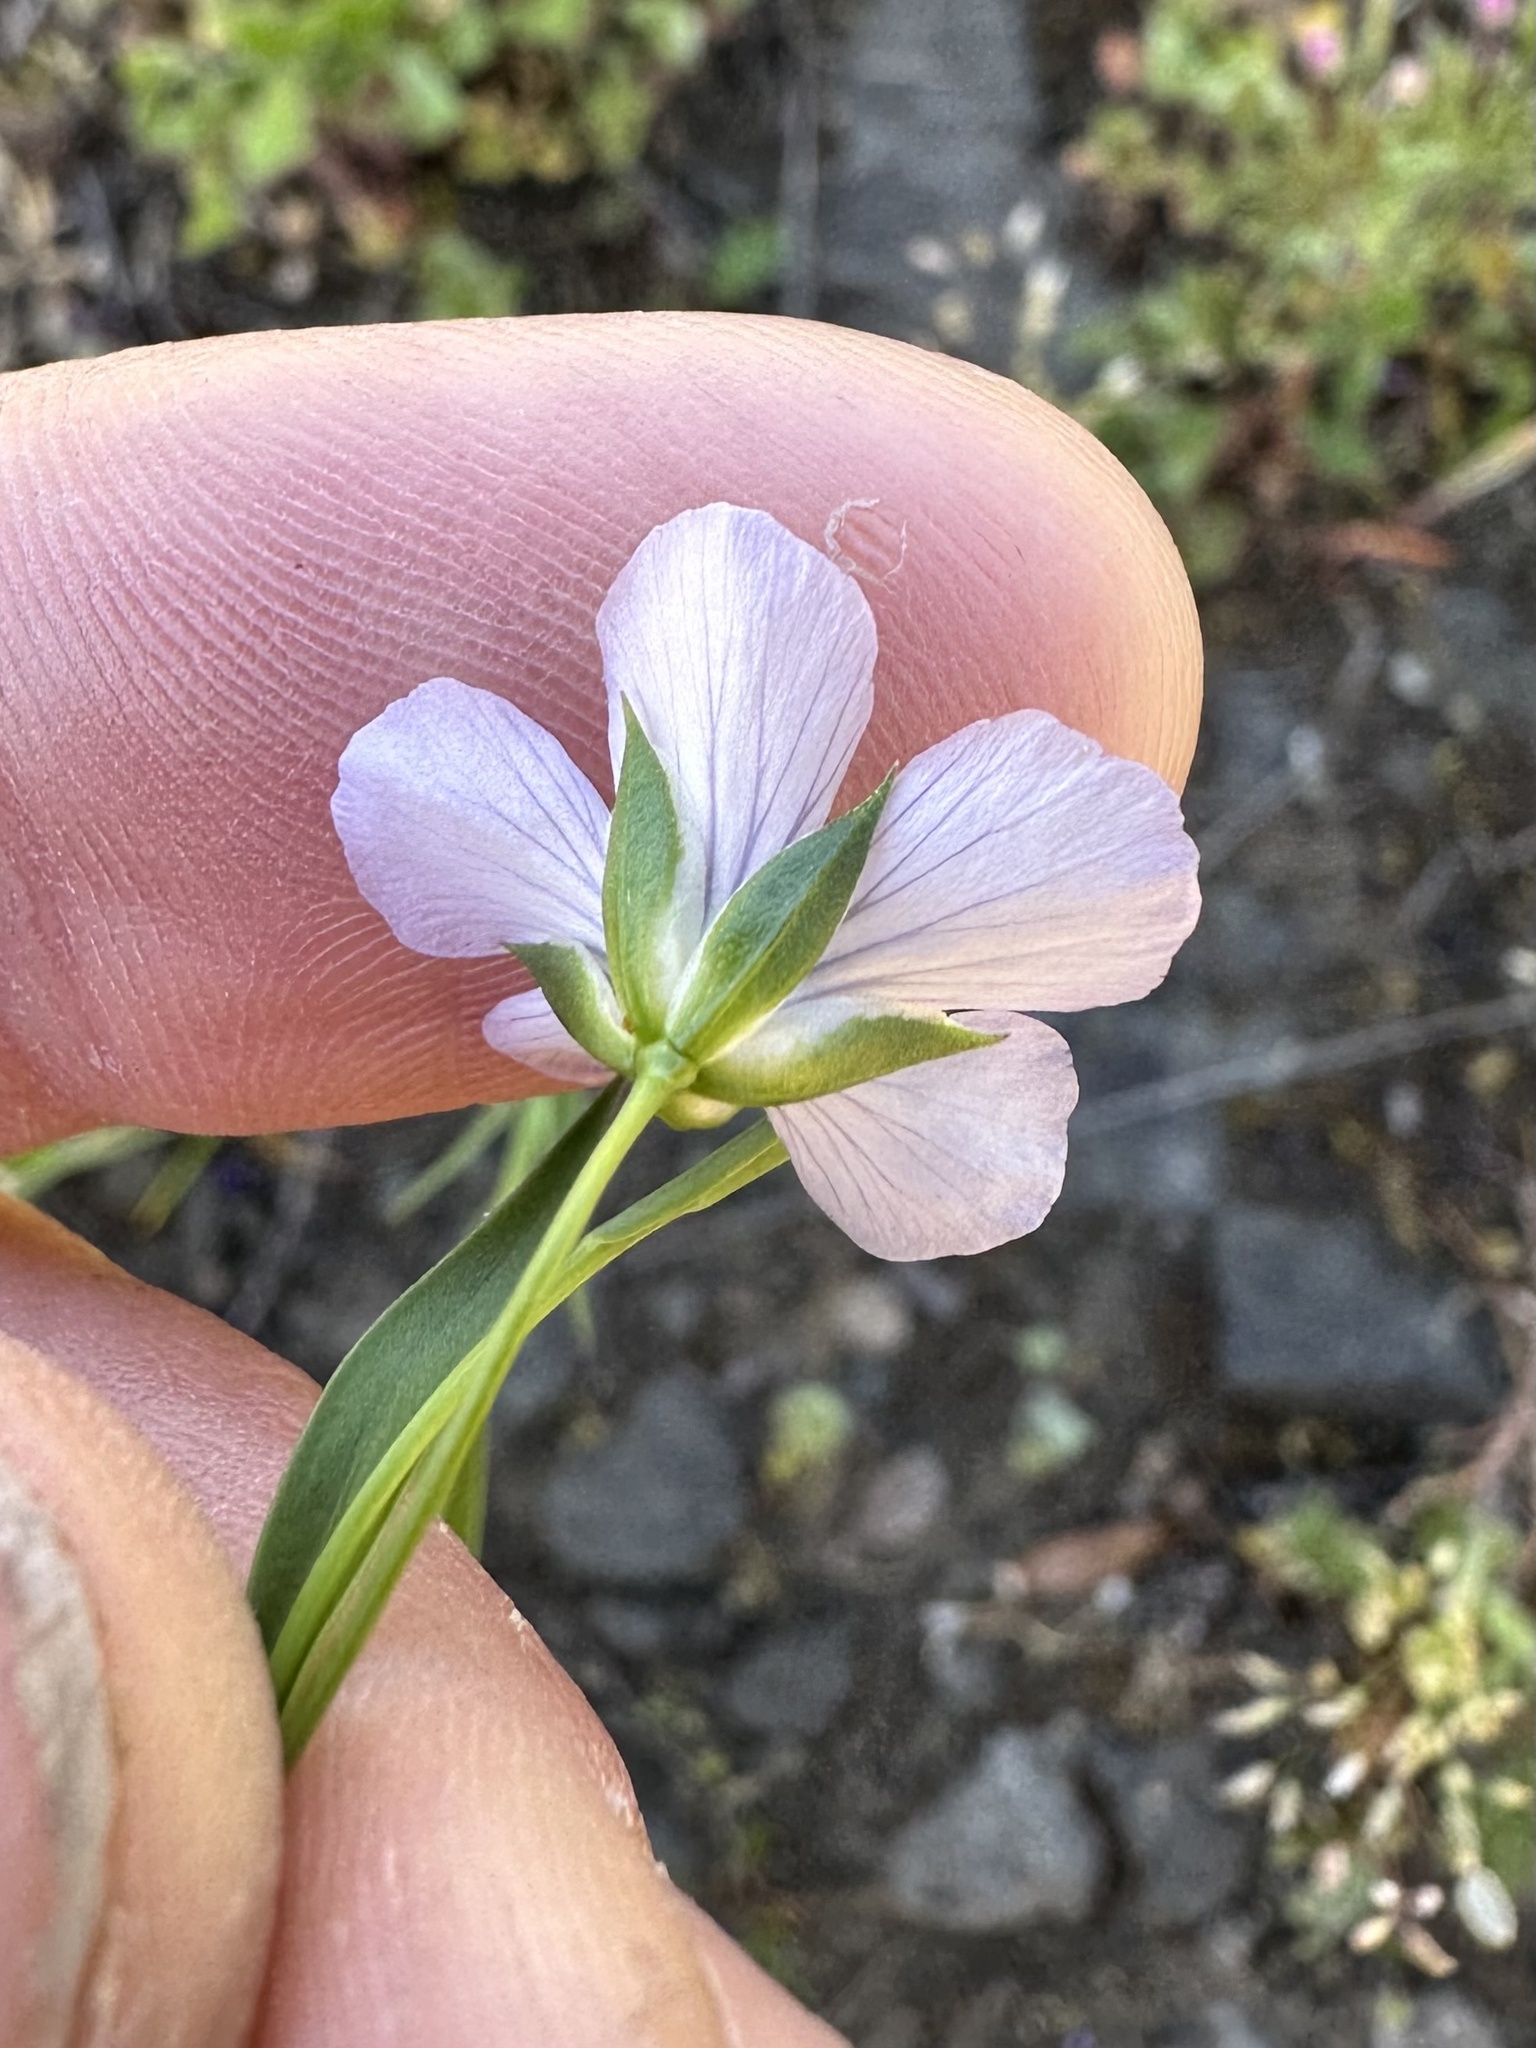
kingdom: Plantae
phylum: Tracheophyta
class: Magnoliopsida
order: Malpighiales
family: Linaceae
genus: Linum
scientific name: Linum bienne
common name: Pale flax
